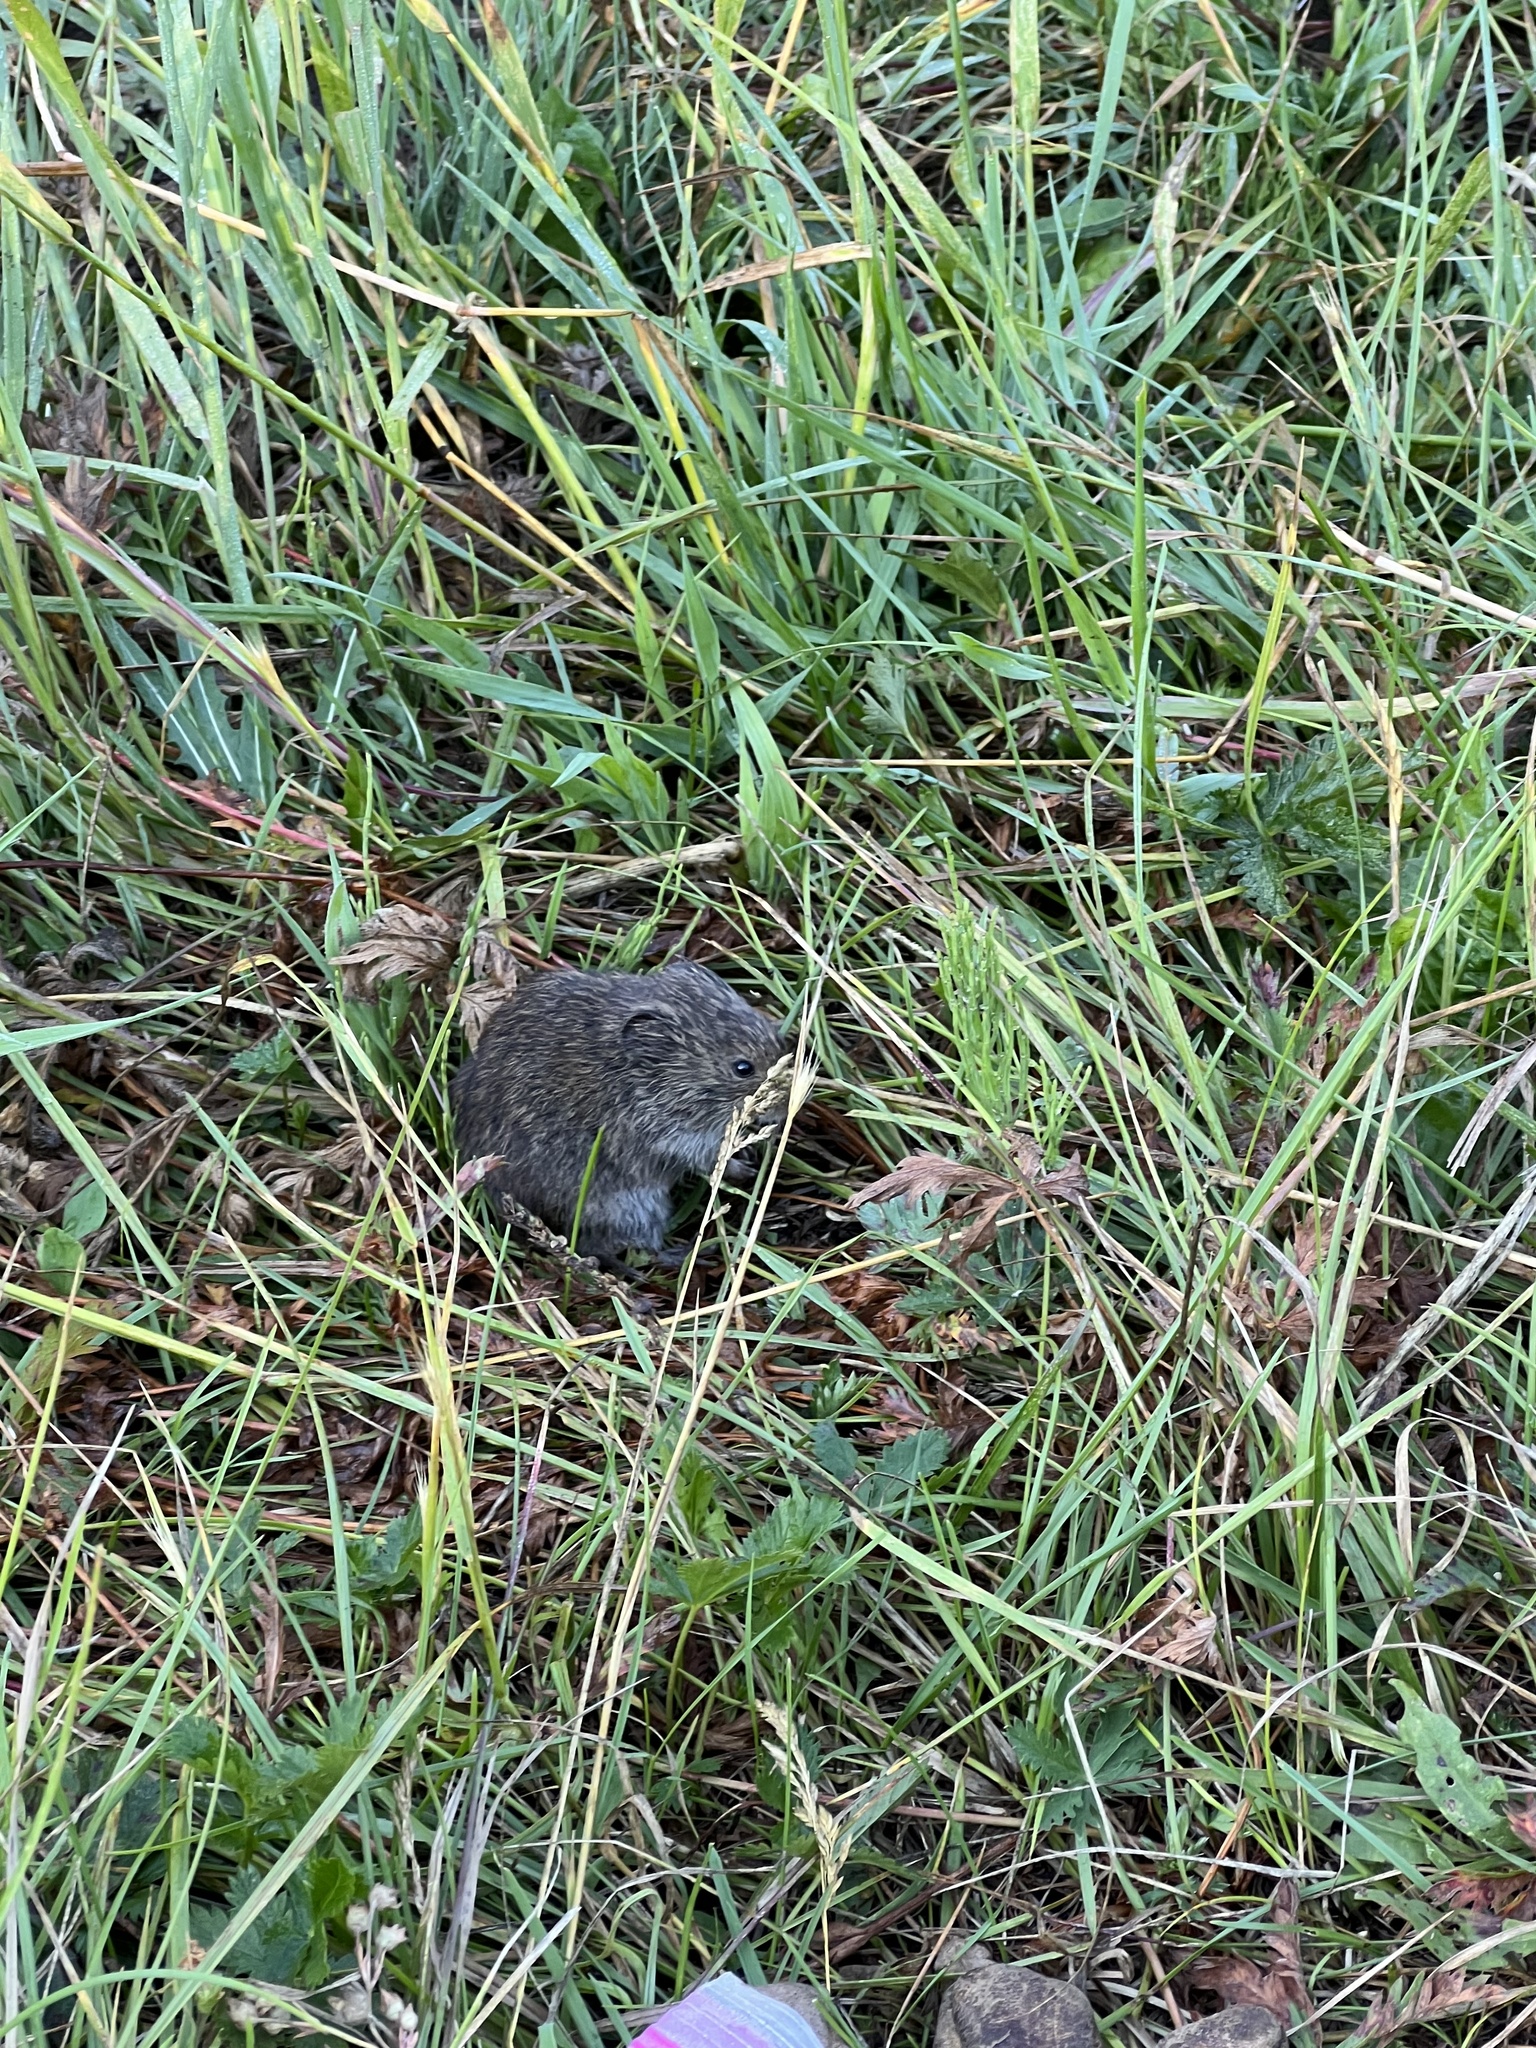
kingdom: Animalia
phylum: Chordata
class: Mammalia
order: Rodentia
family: Cricetidae
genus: Microtus
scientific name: Microtus pennsylvanicus
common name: Meadow vole
